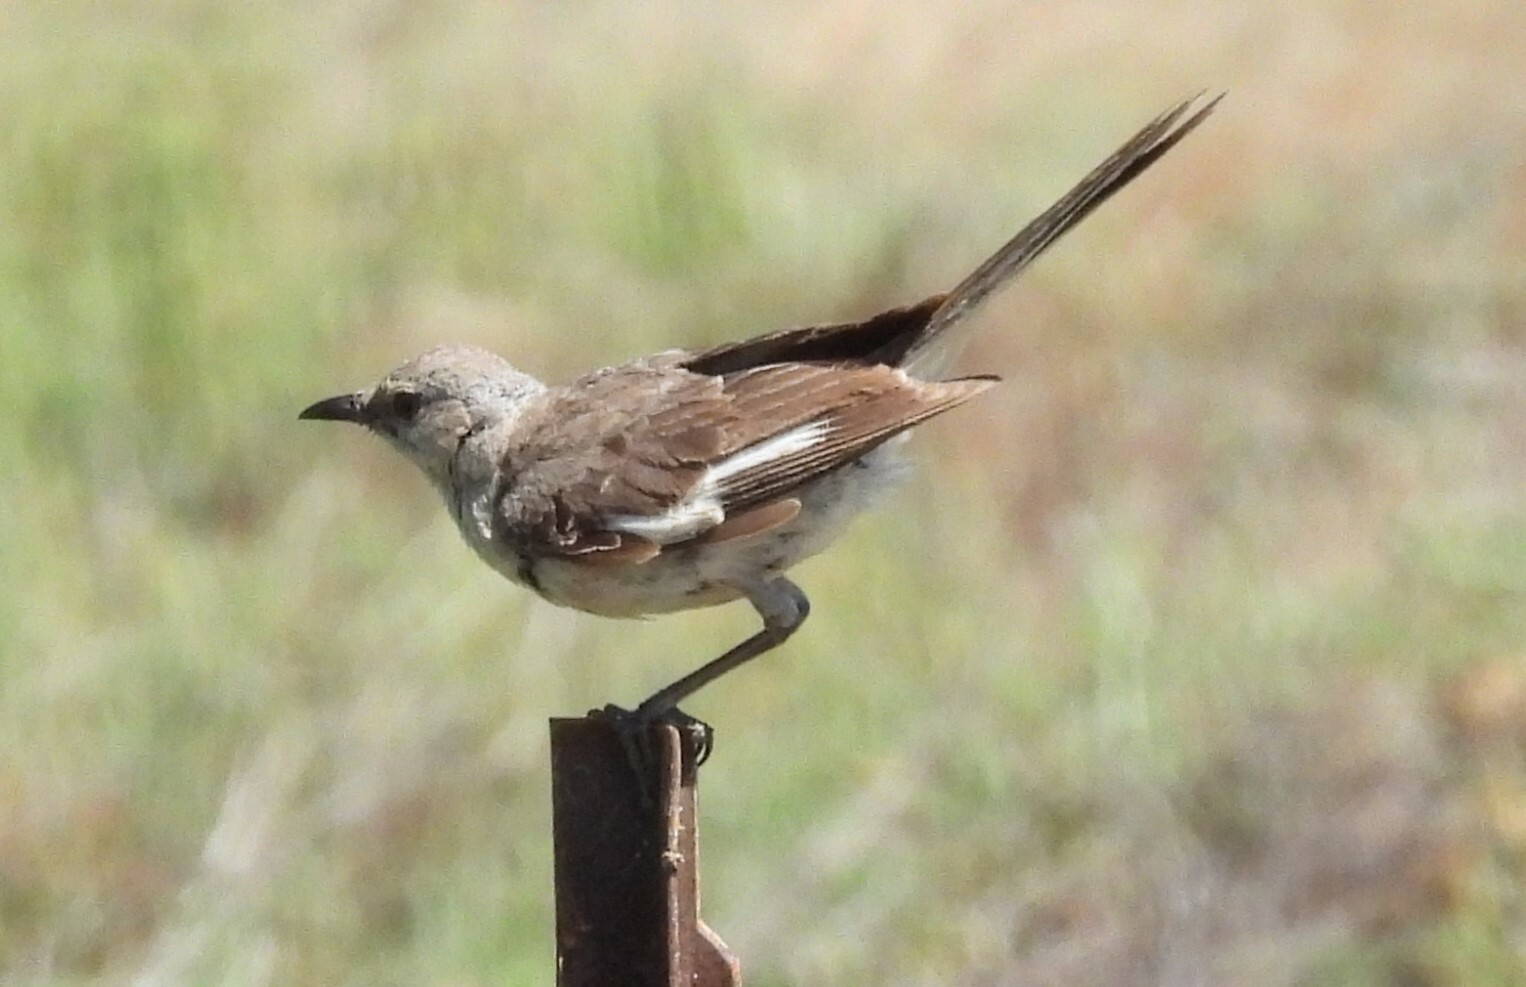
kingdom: Animalia
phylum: Chordata
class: Aves
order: Passeriformes
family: Mimidae
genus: Mimus
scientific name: Mimus polyglottos
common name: Northern mockingbird
